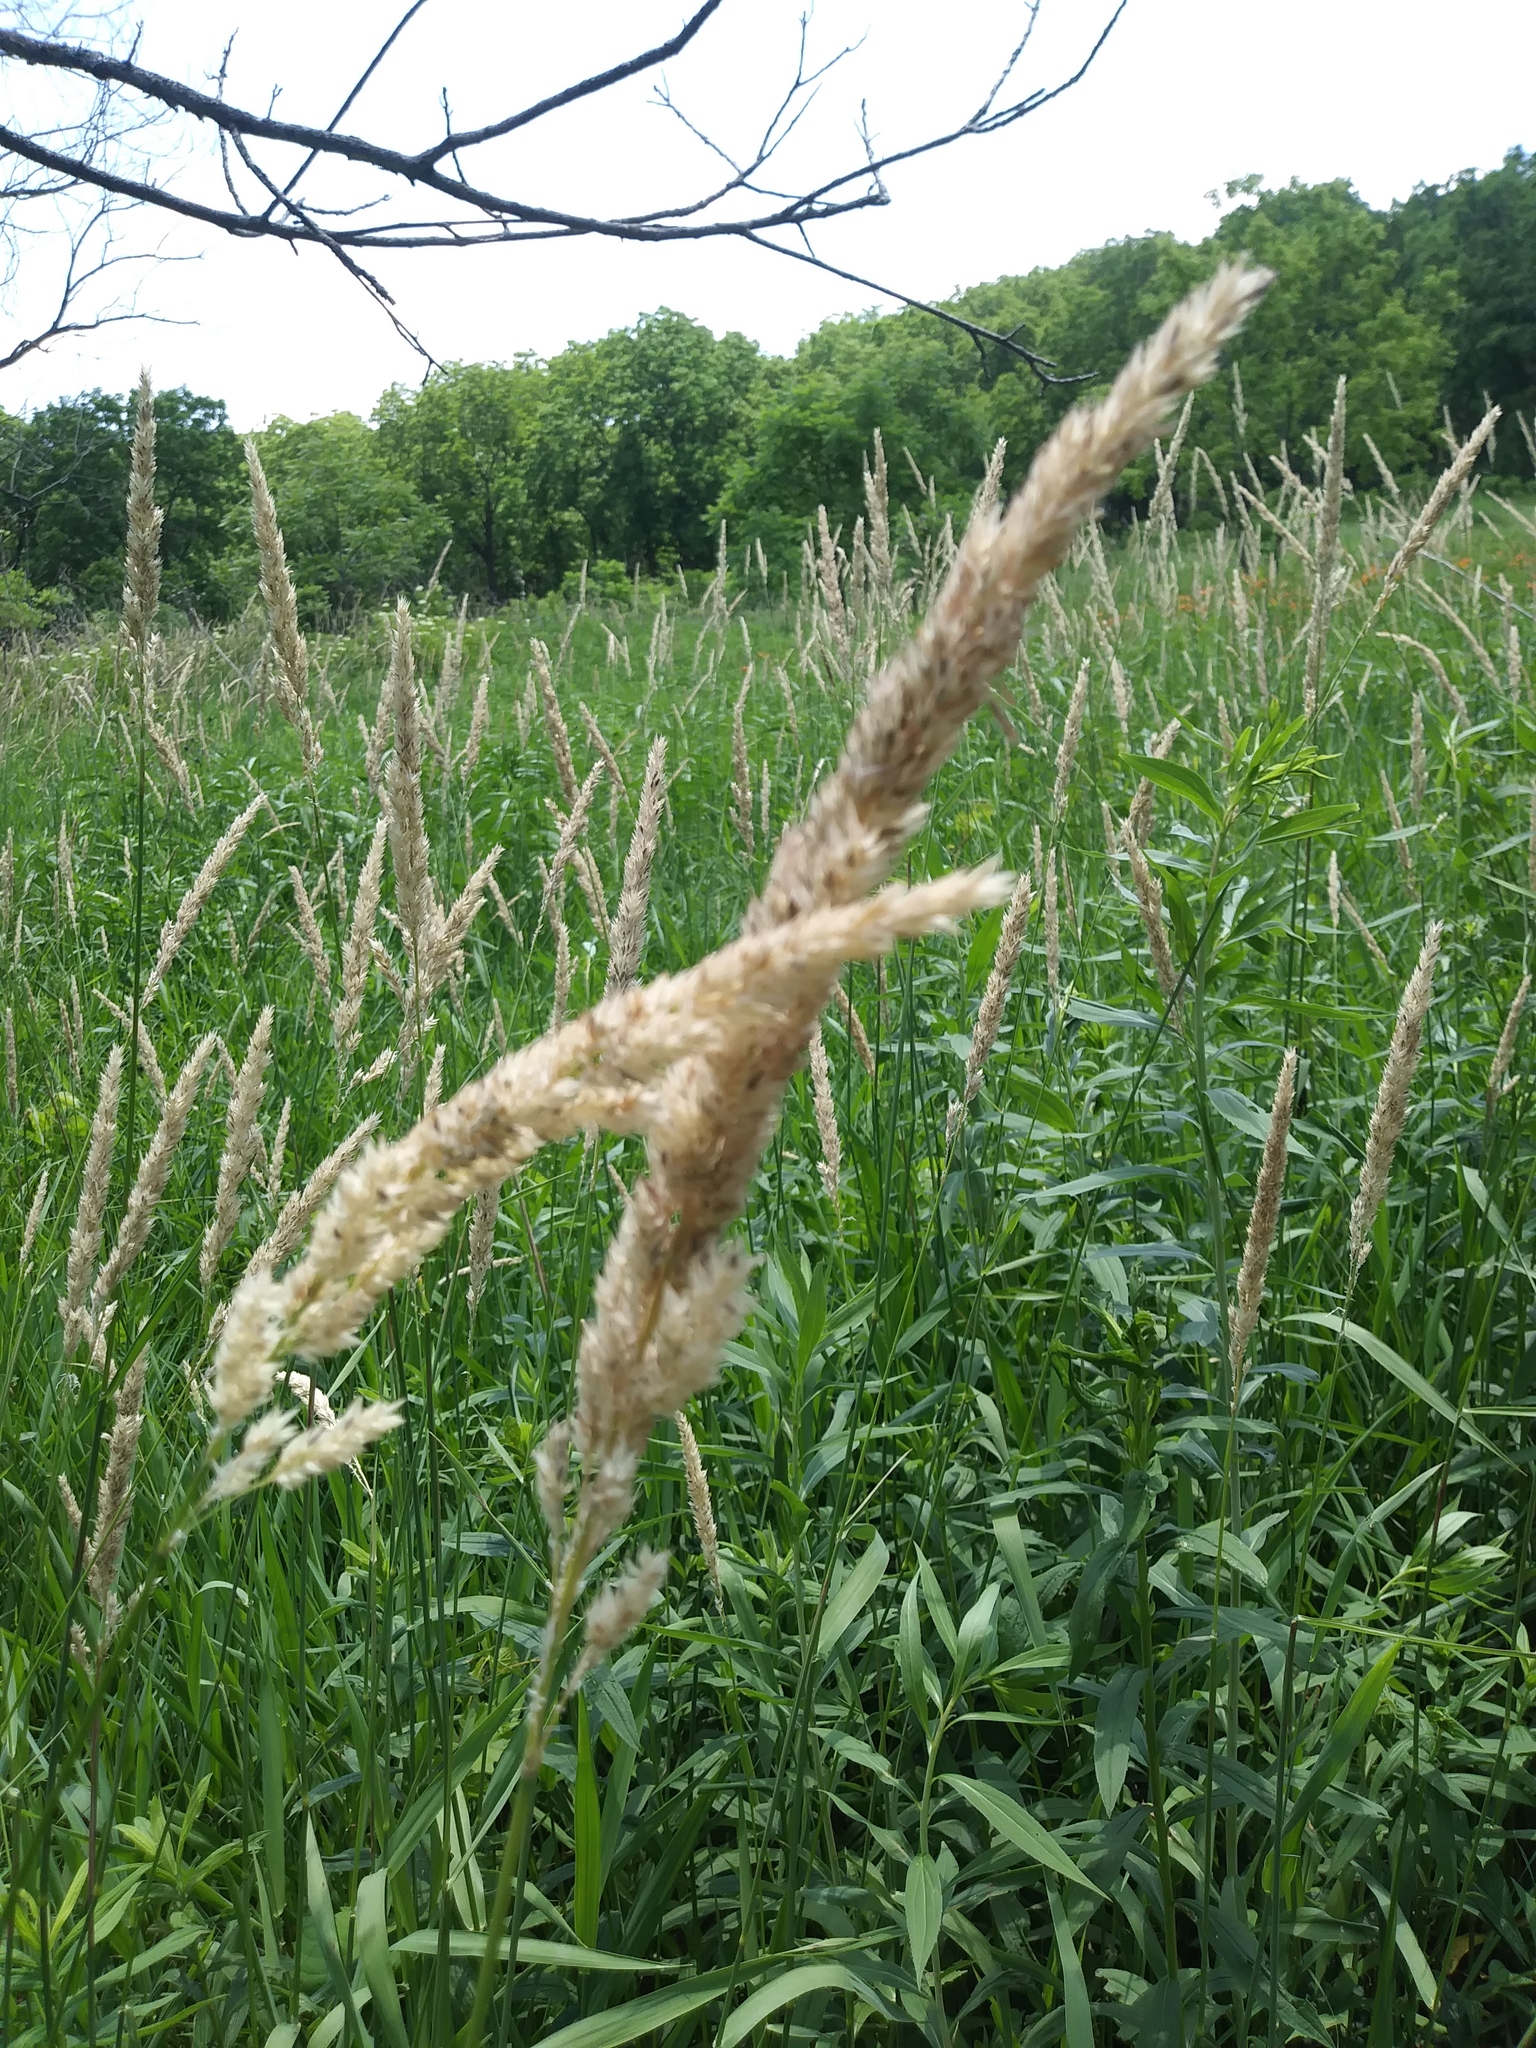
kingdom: Plantae
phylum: Tracheophyta
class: Liliopsida
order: Poales
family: Poaceae
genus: Phalaris
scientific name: Phalaris arundinacea
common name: Reed canary-grass
